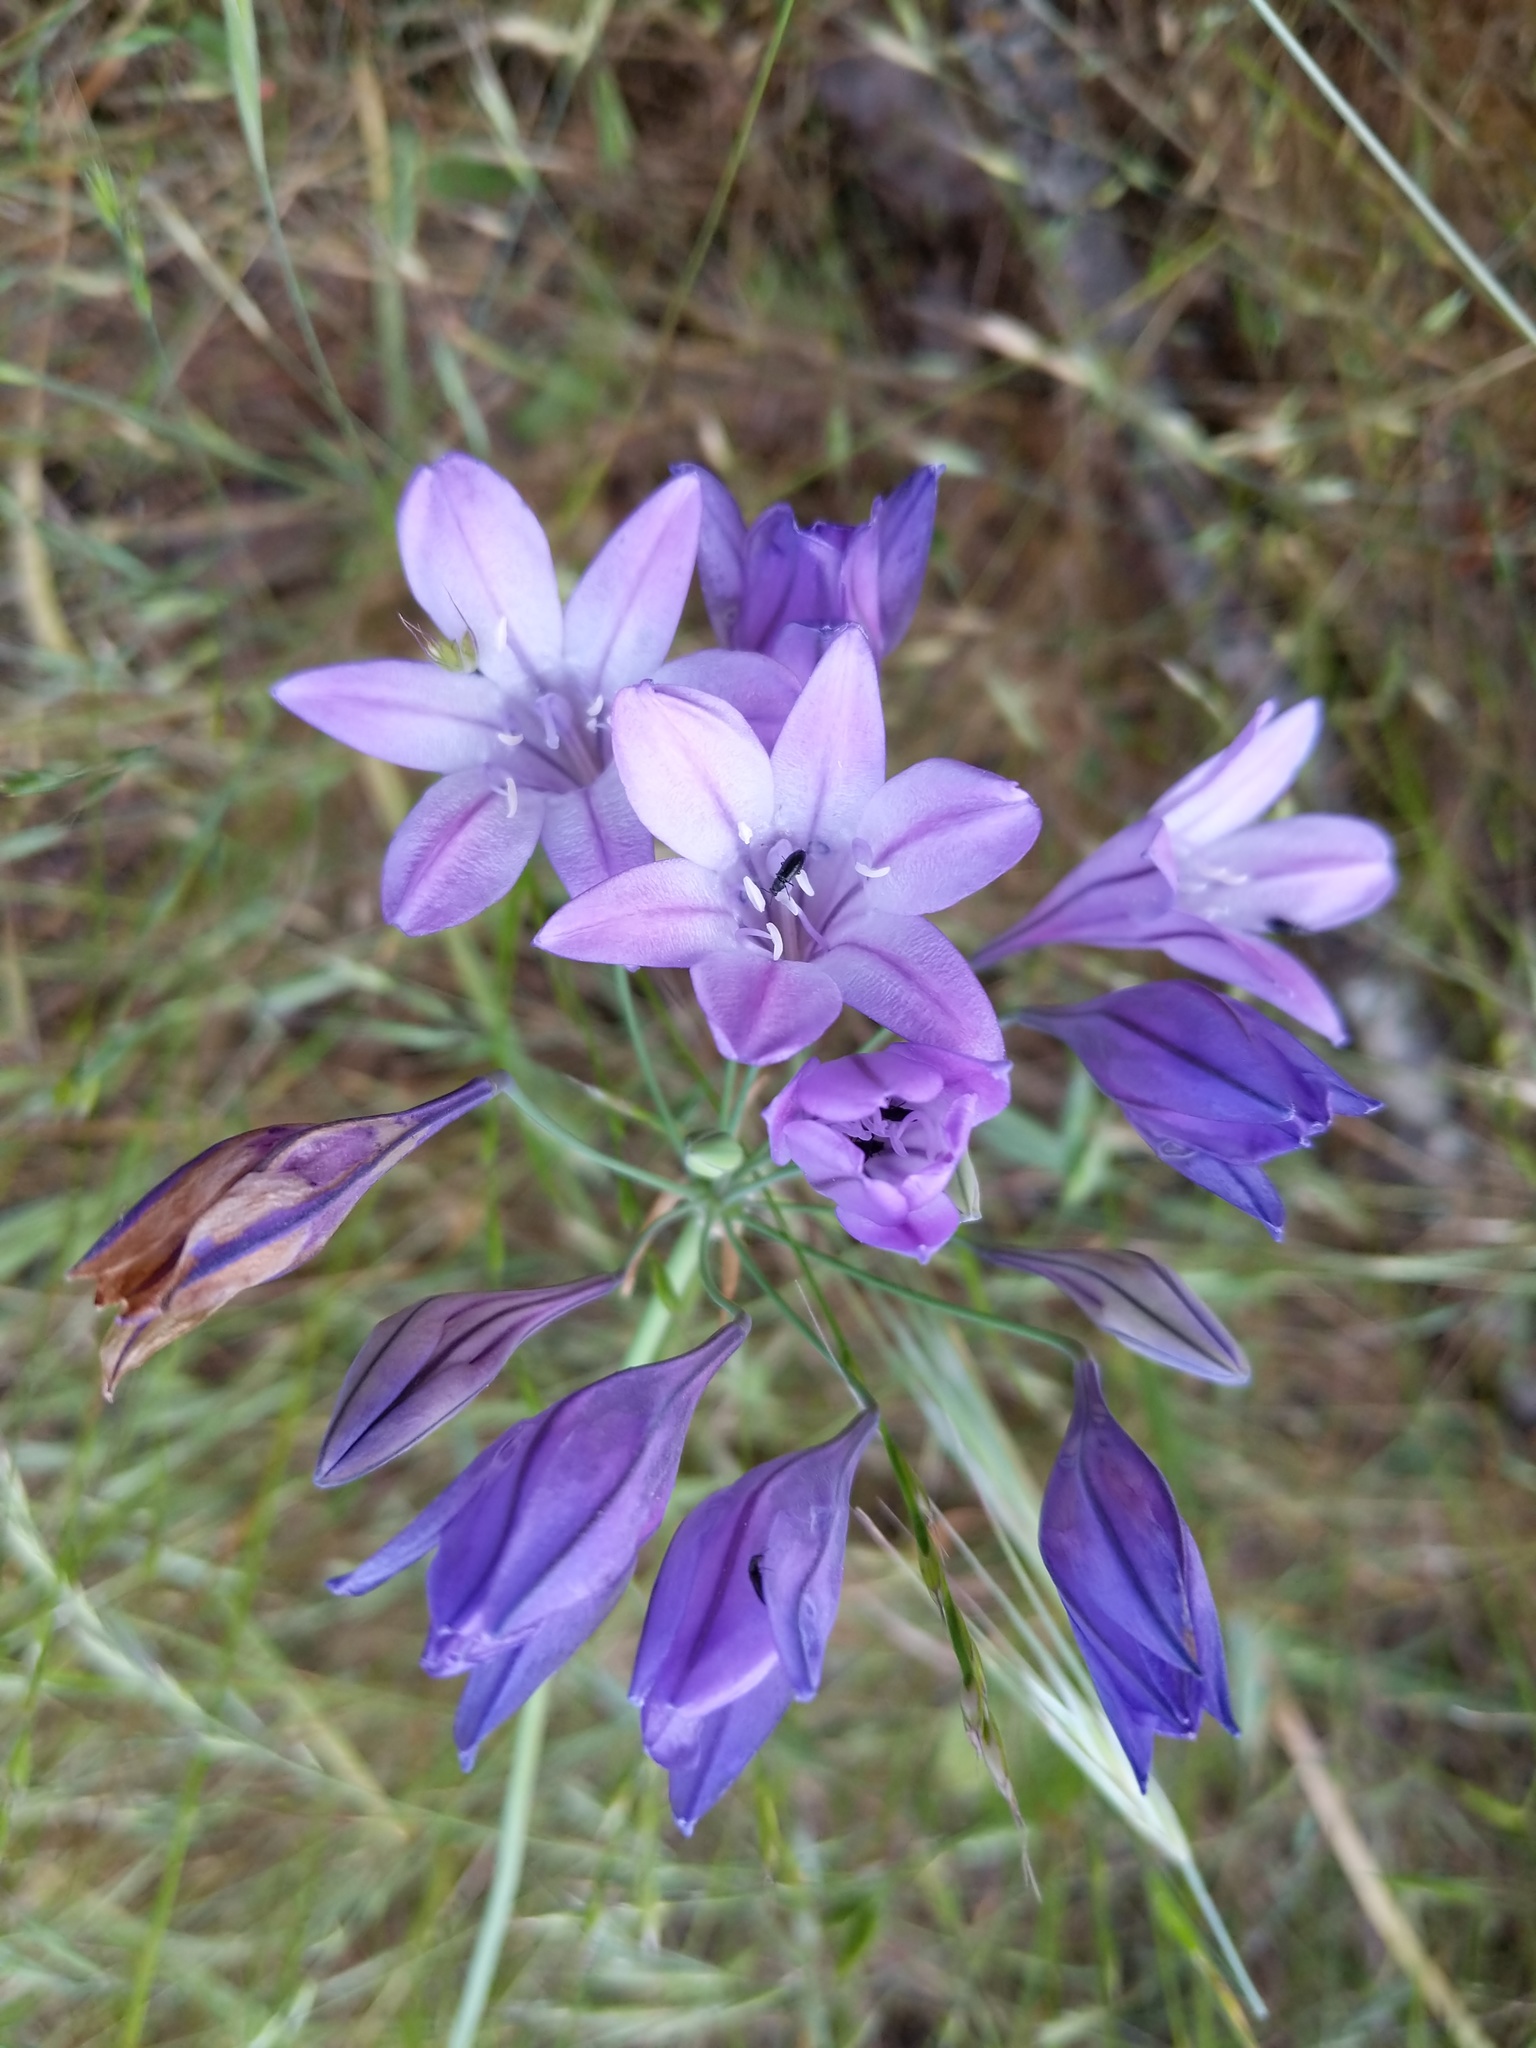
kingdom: Plantae
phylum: Tracheophyta
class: Liliopsida
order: Asparagales
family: Asparagaceae
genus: Triteleia
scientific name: Triteleia laxa
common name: Triplet-lily
